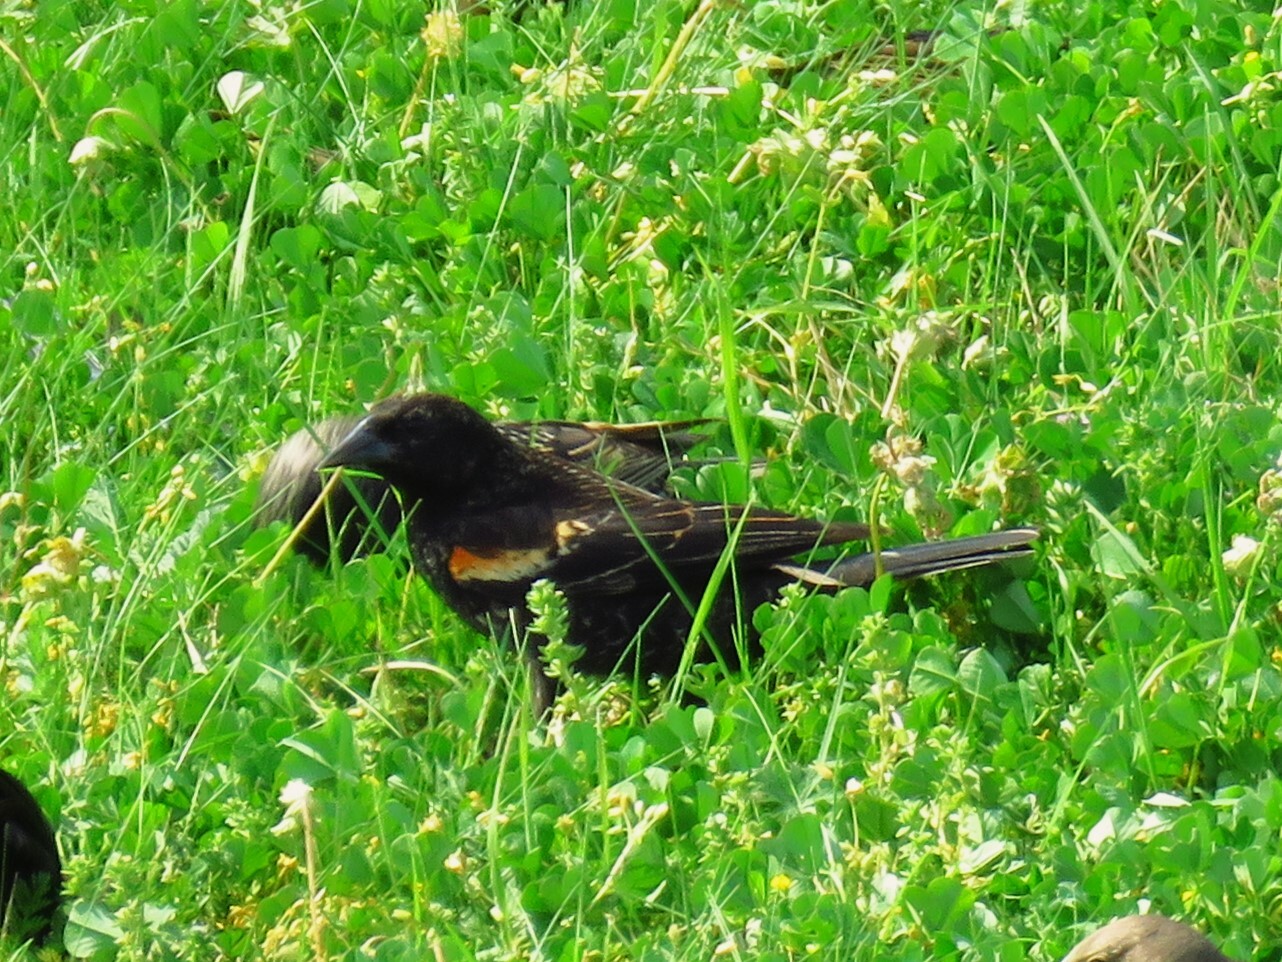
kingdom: Animalia
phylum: Chordata
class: Aves
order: Passeriformes
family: Icteridae
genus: Agelaius
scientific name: Agelaius phoeniceus
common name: Red-winged blackbird
